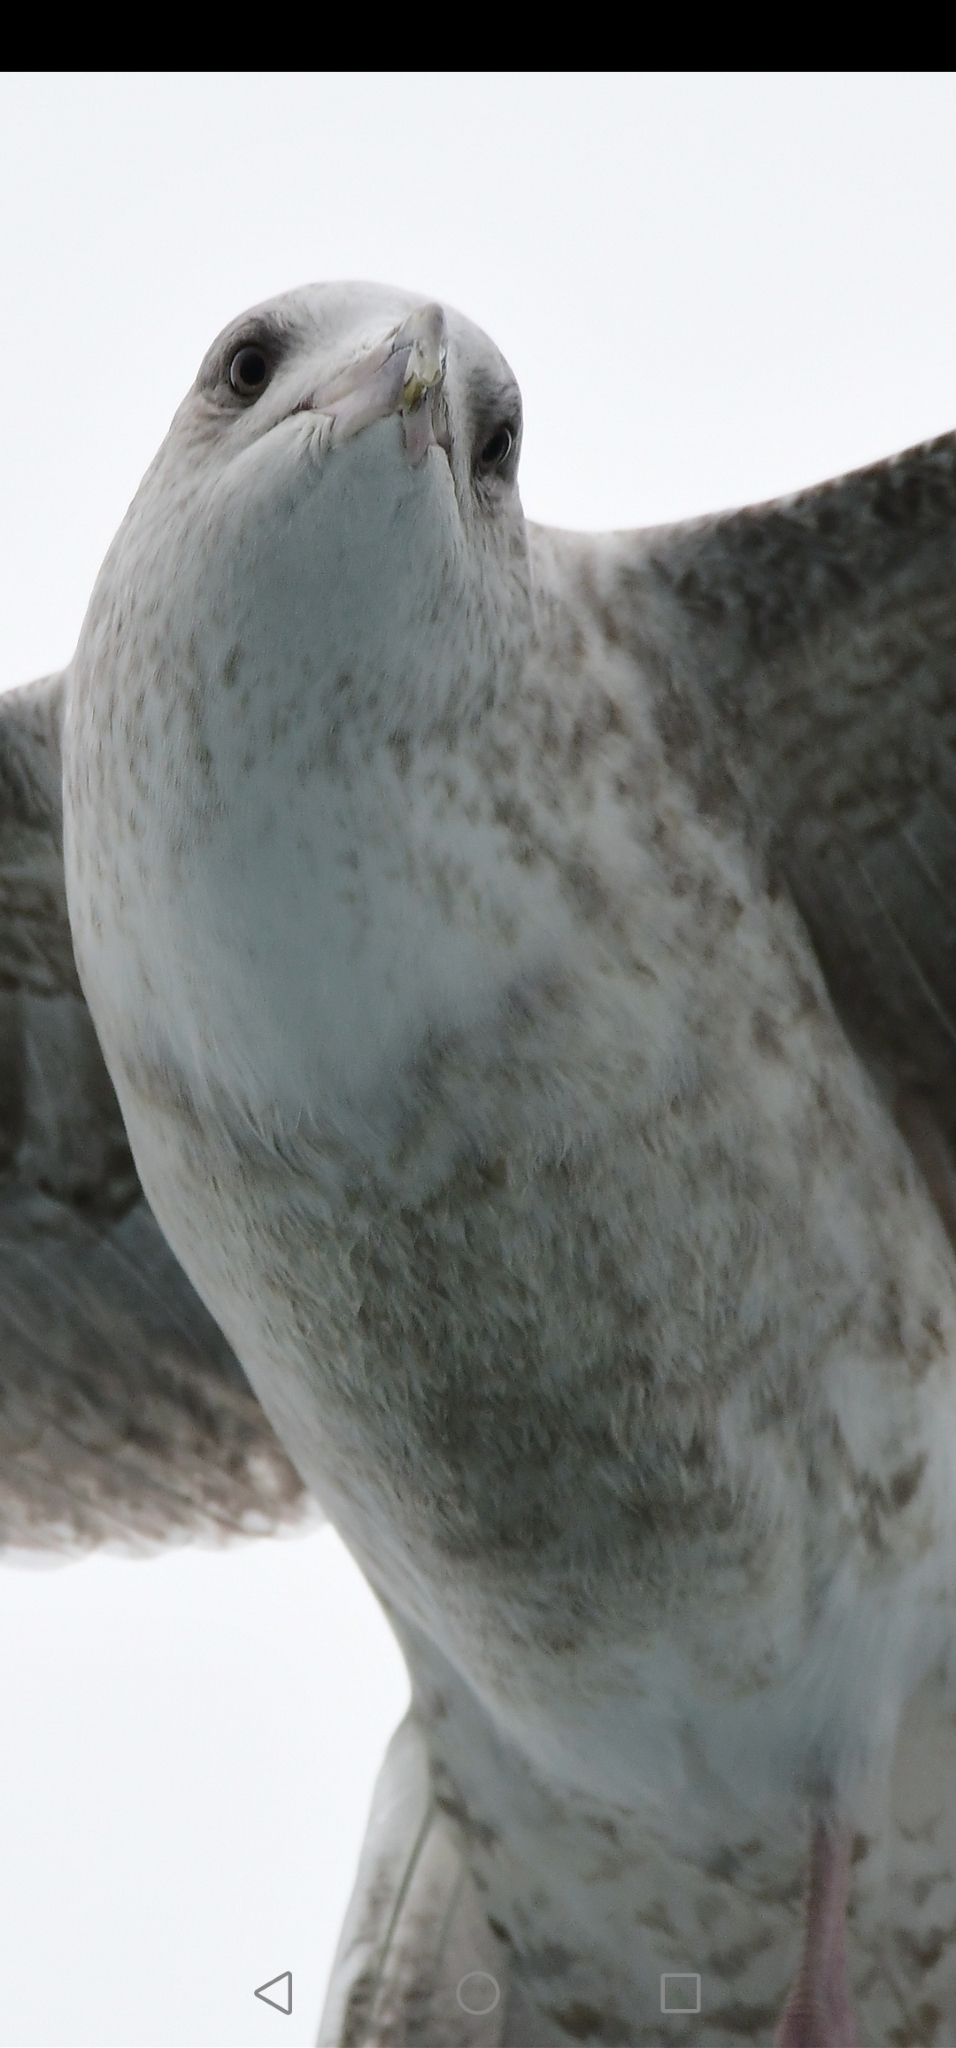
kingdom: Animalia
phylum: Chordata
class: Aves
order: Charadriiformes
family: Laridae
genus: Larus
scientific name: Larus argentatus
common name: Herring gull
